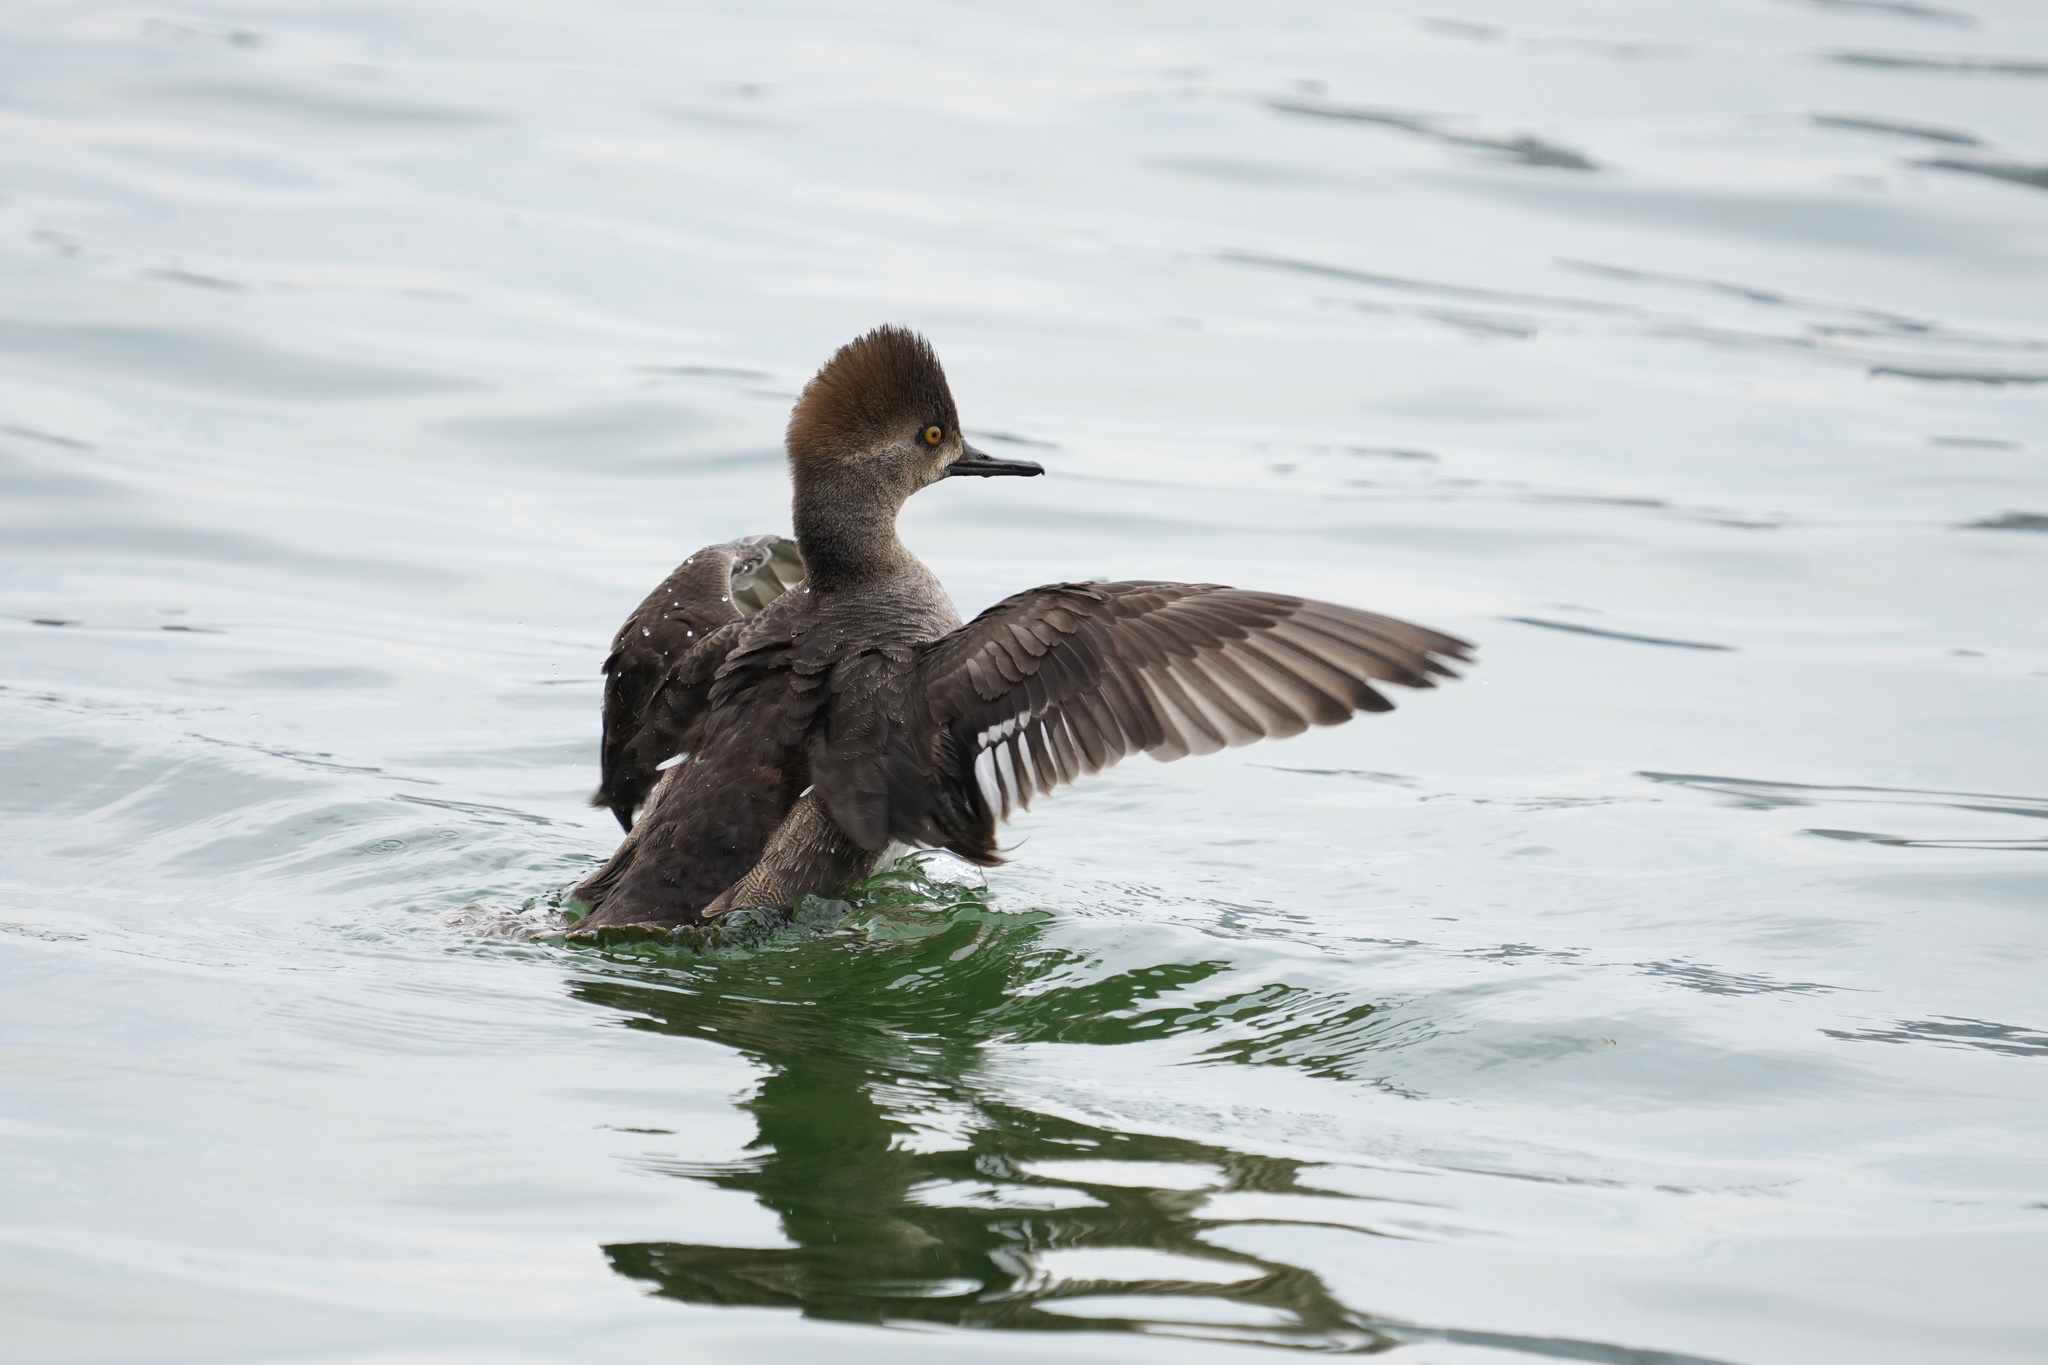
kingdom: Animalia
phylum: Chordata
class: Aves
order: Anseriformes
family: Anatidae
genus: Lophodytes
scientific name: Lophodytes cucullatus
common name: Hooded merganser
